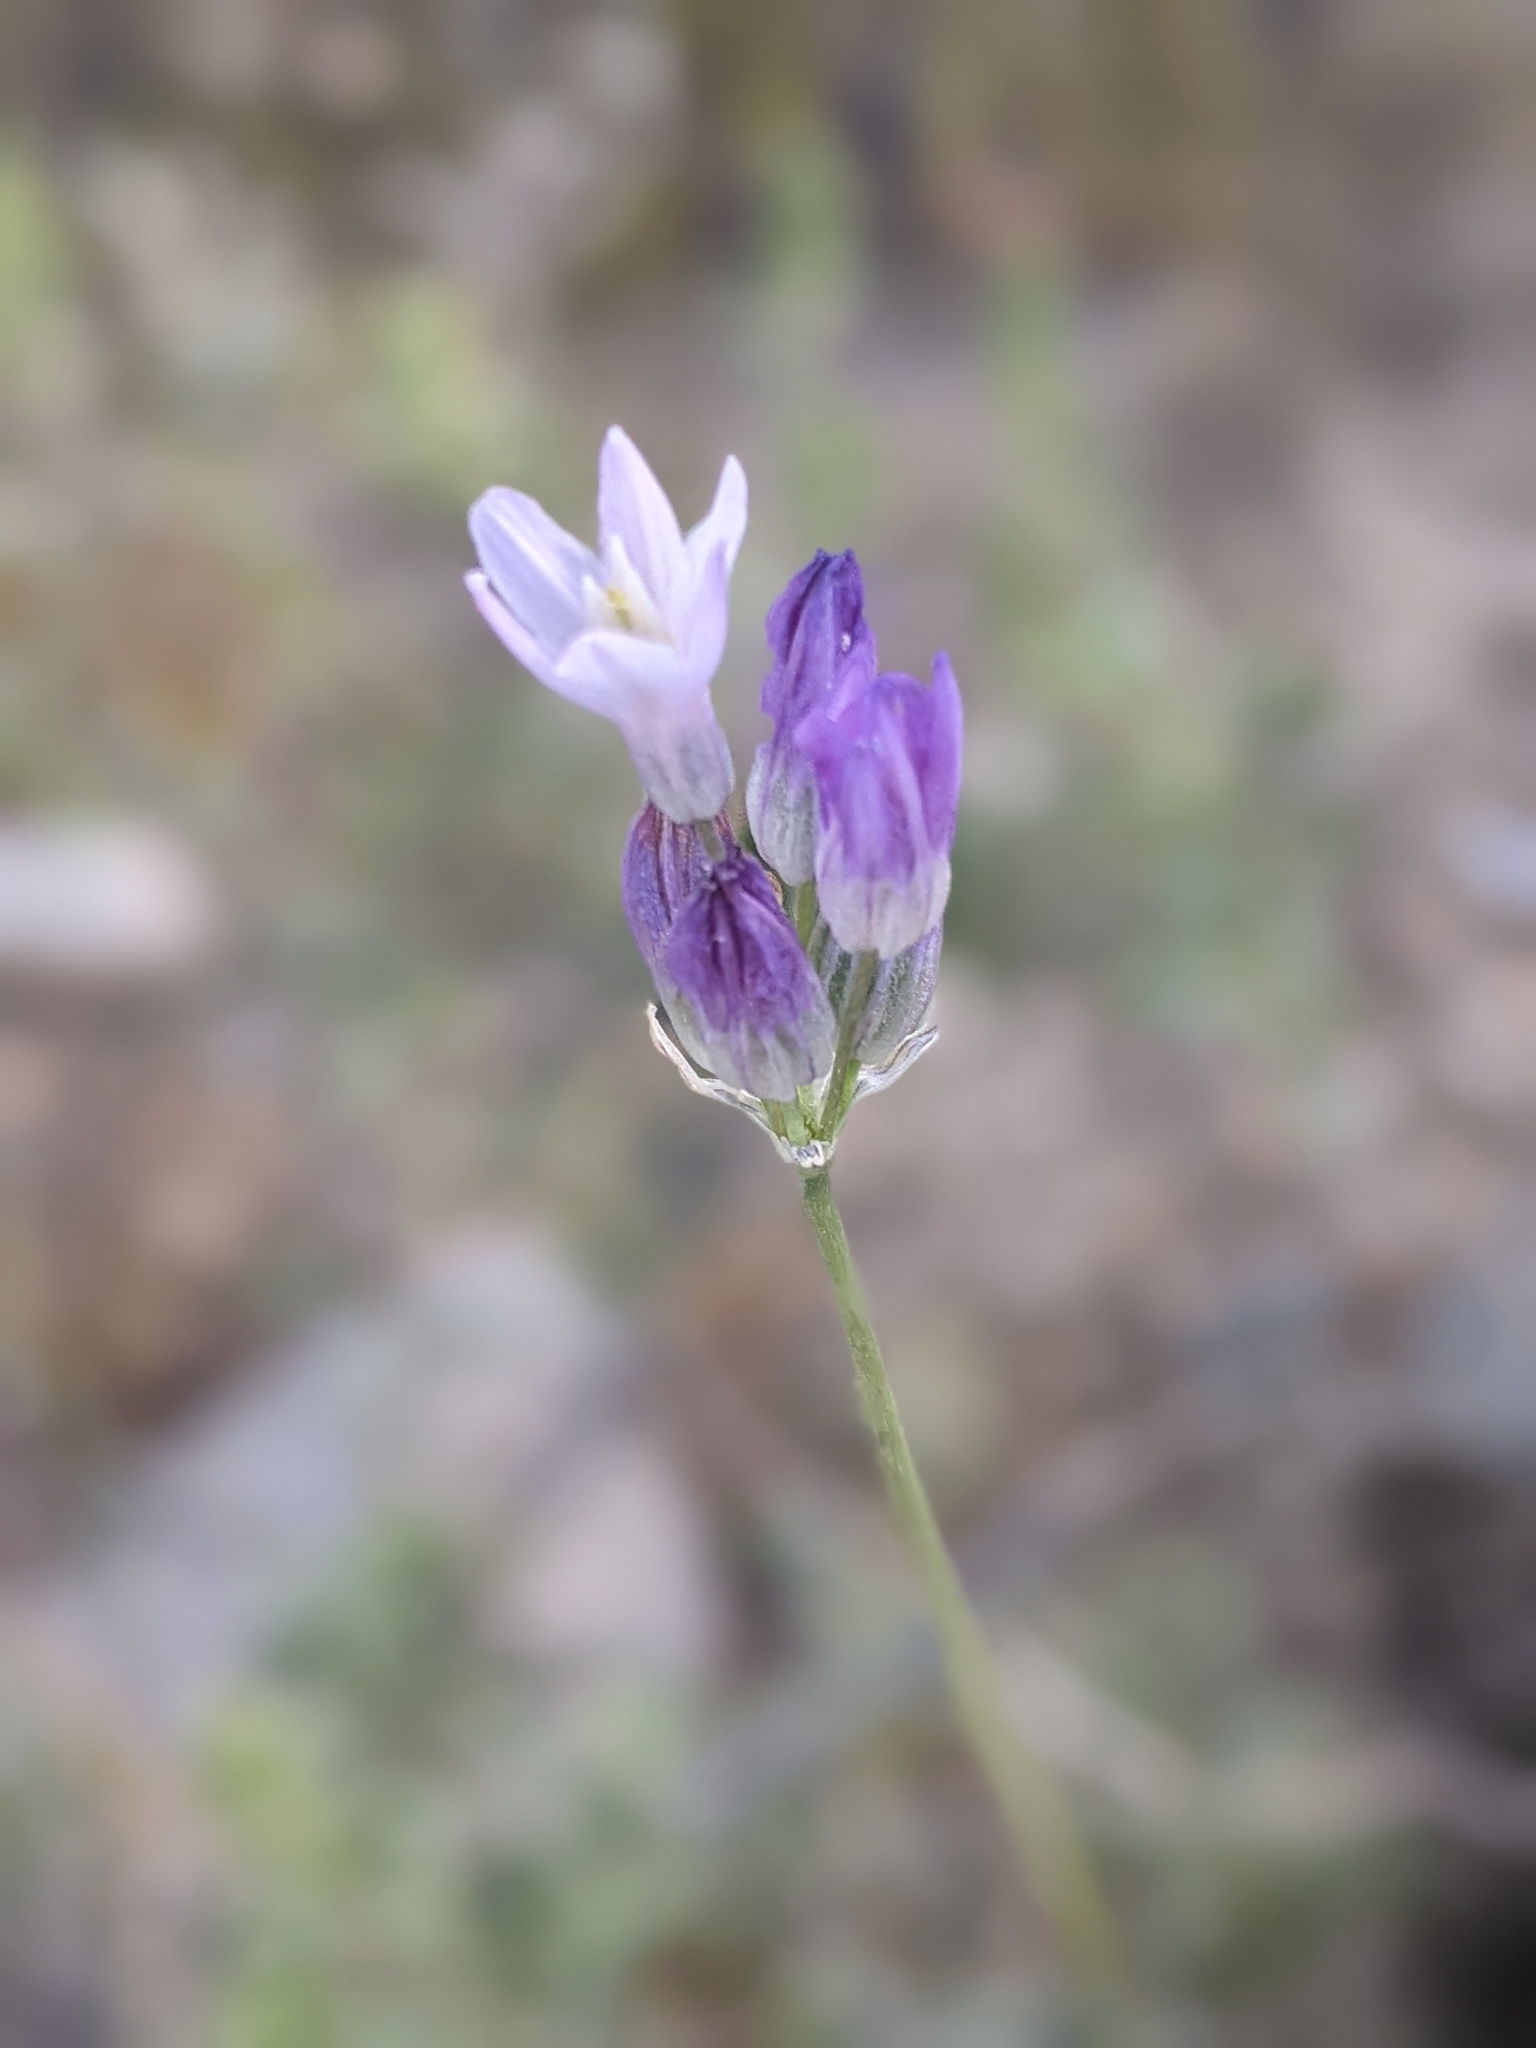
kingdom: Plantae
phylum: Tracheophyta
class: Liliopsida
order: Asparagales
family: Asparagaceae
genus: Dipterostemon
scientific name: Dipterostemon capitatus
